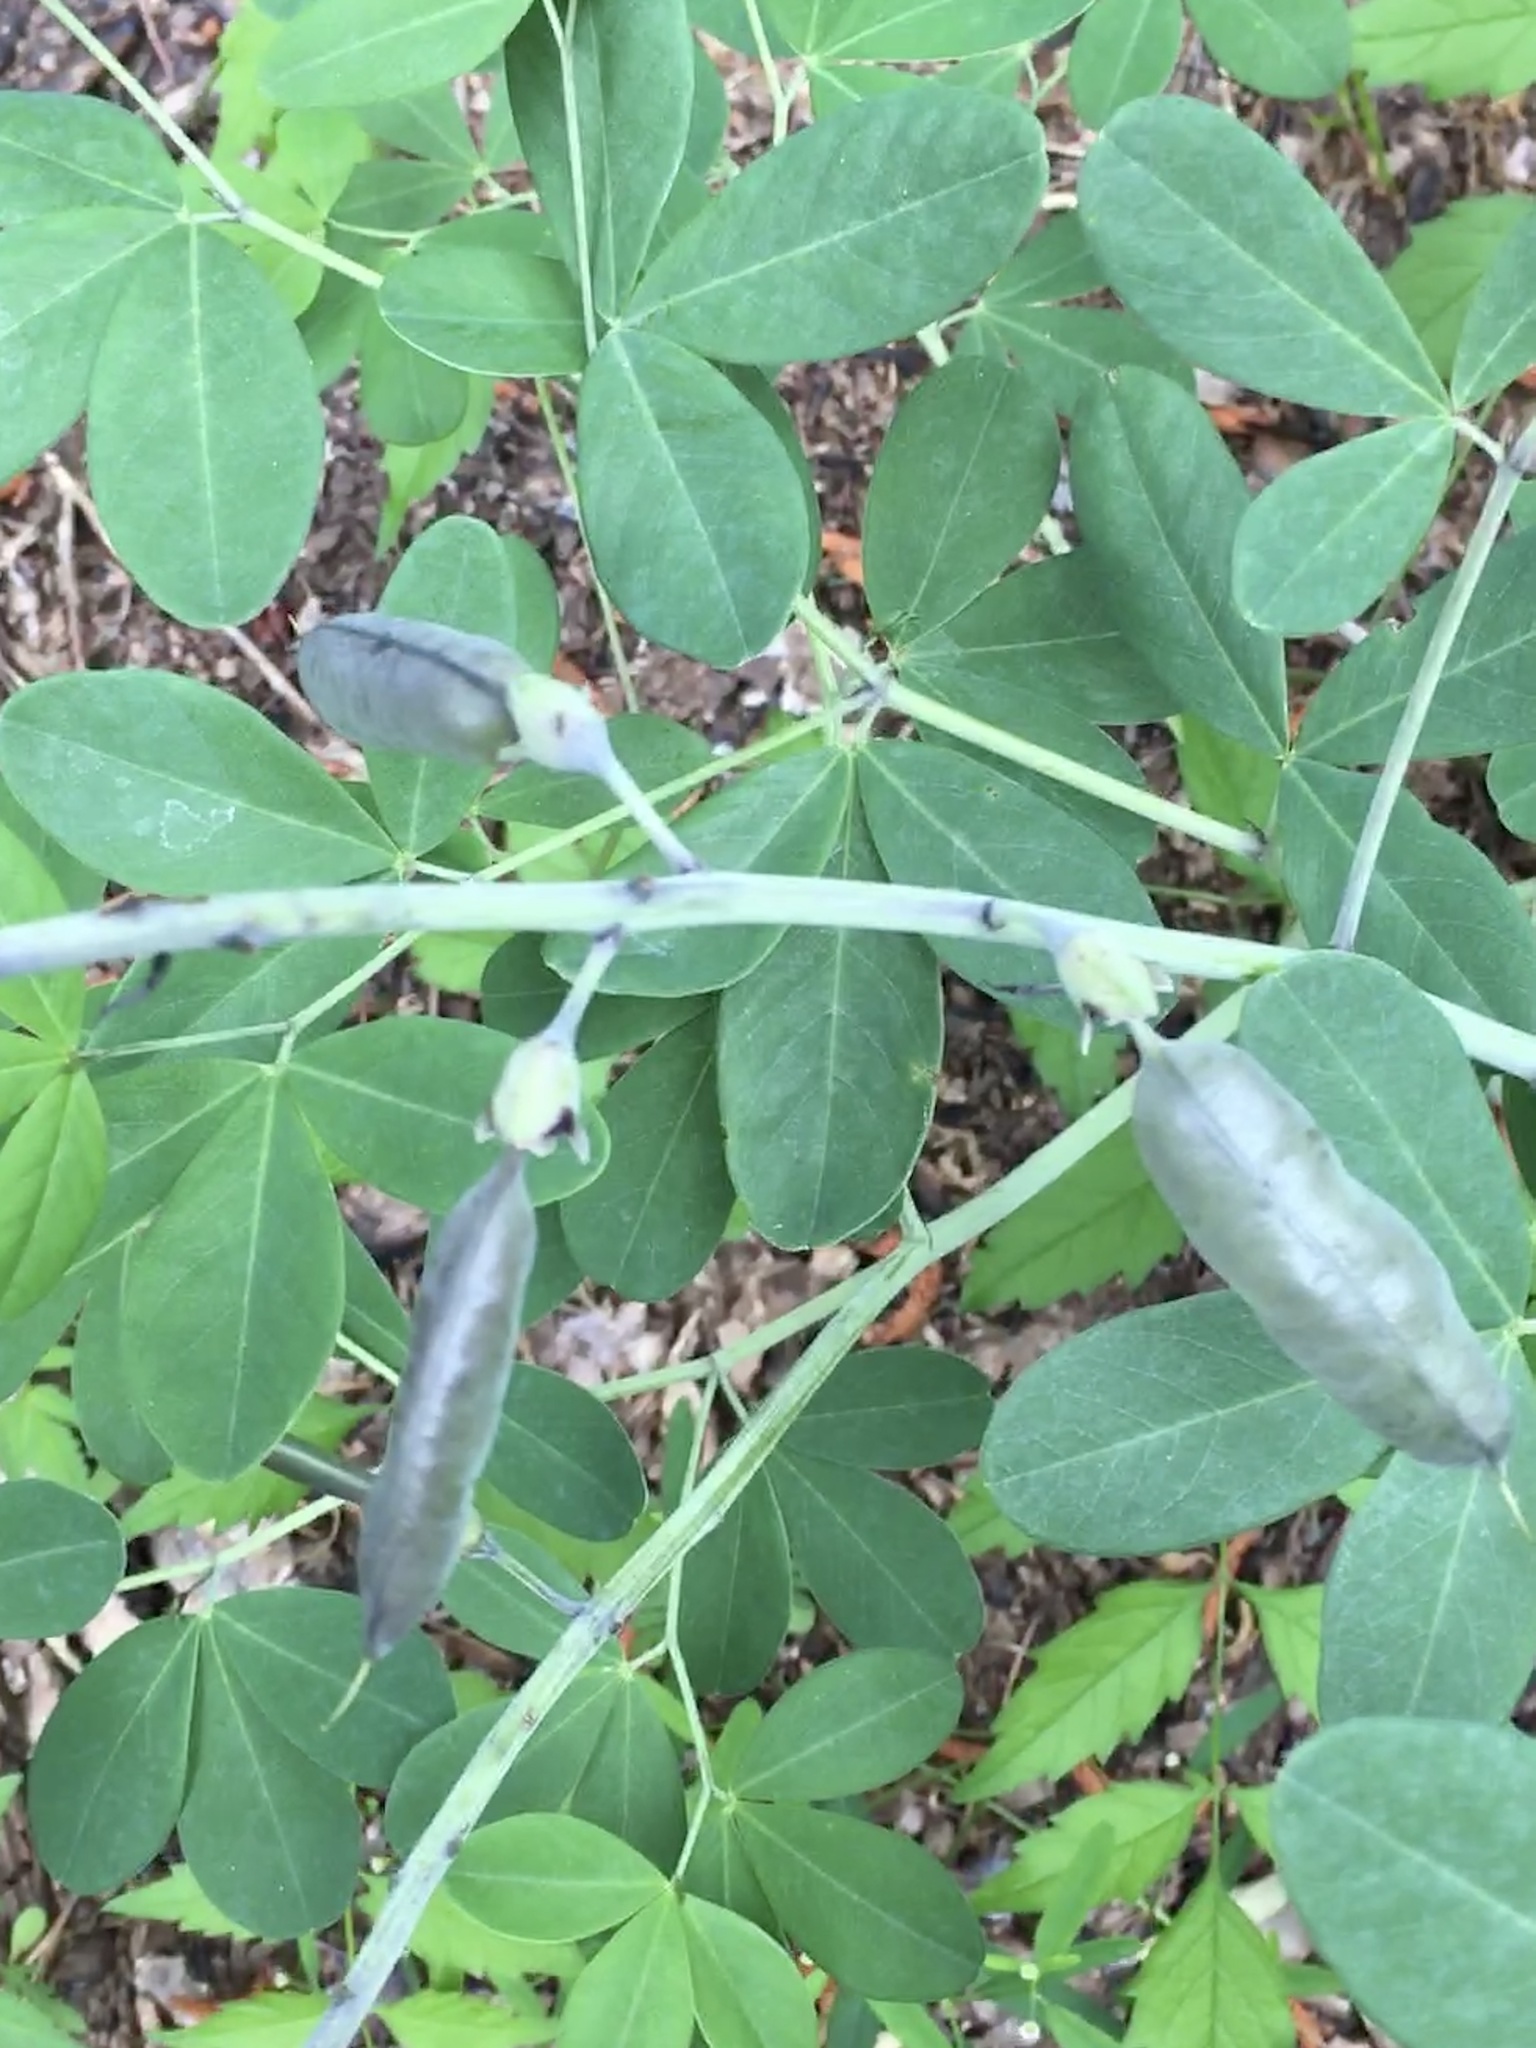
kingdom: Plantae
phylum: Tracheophyta
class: Magnoliopsida
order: Fabales
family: Fabaceae
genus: Baptisia
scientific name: Baptisia alba
